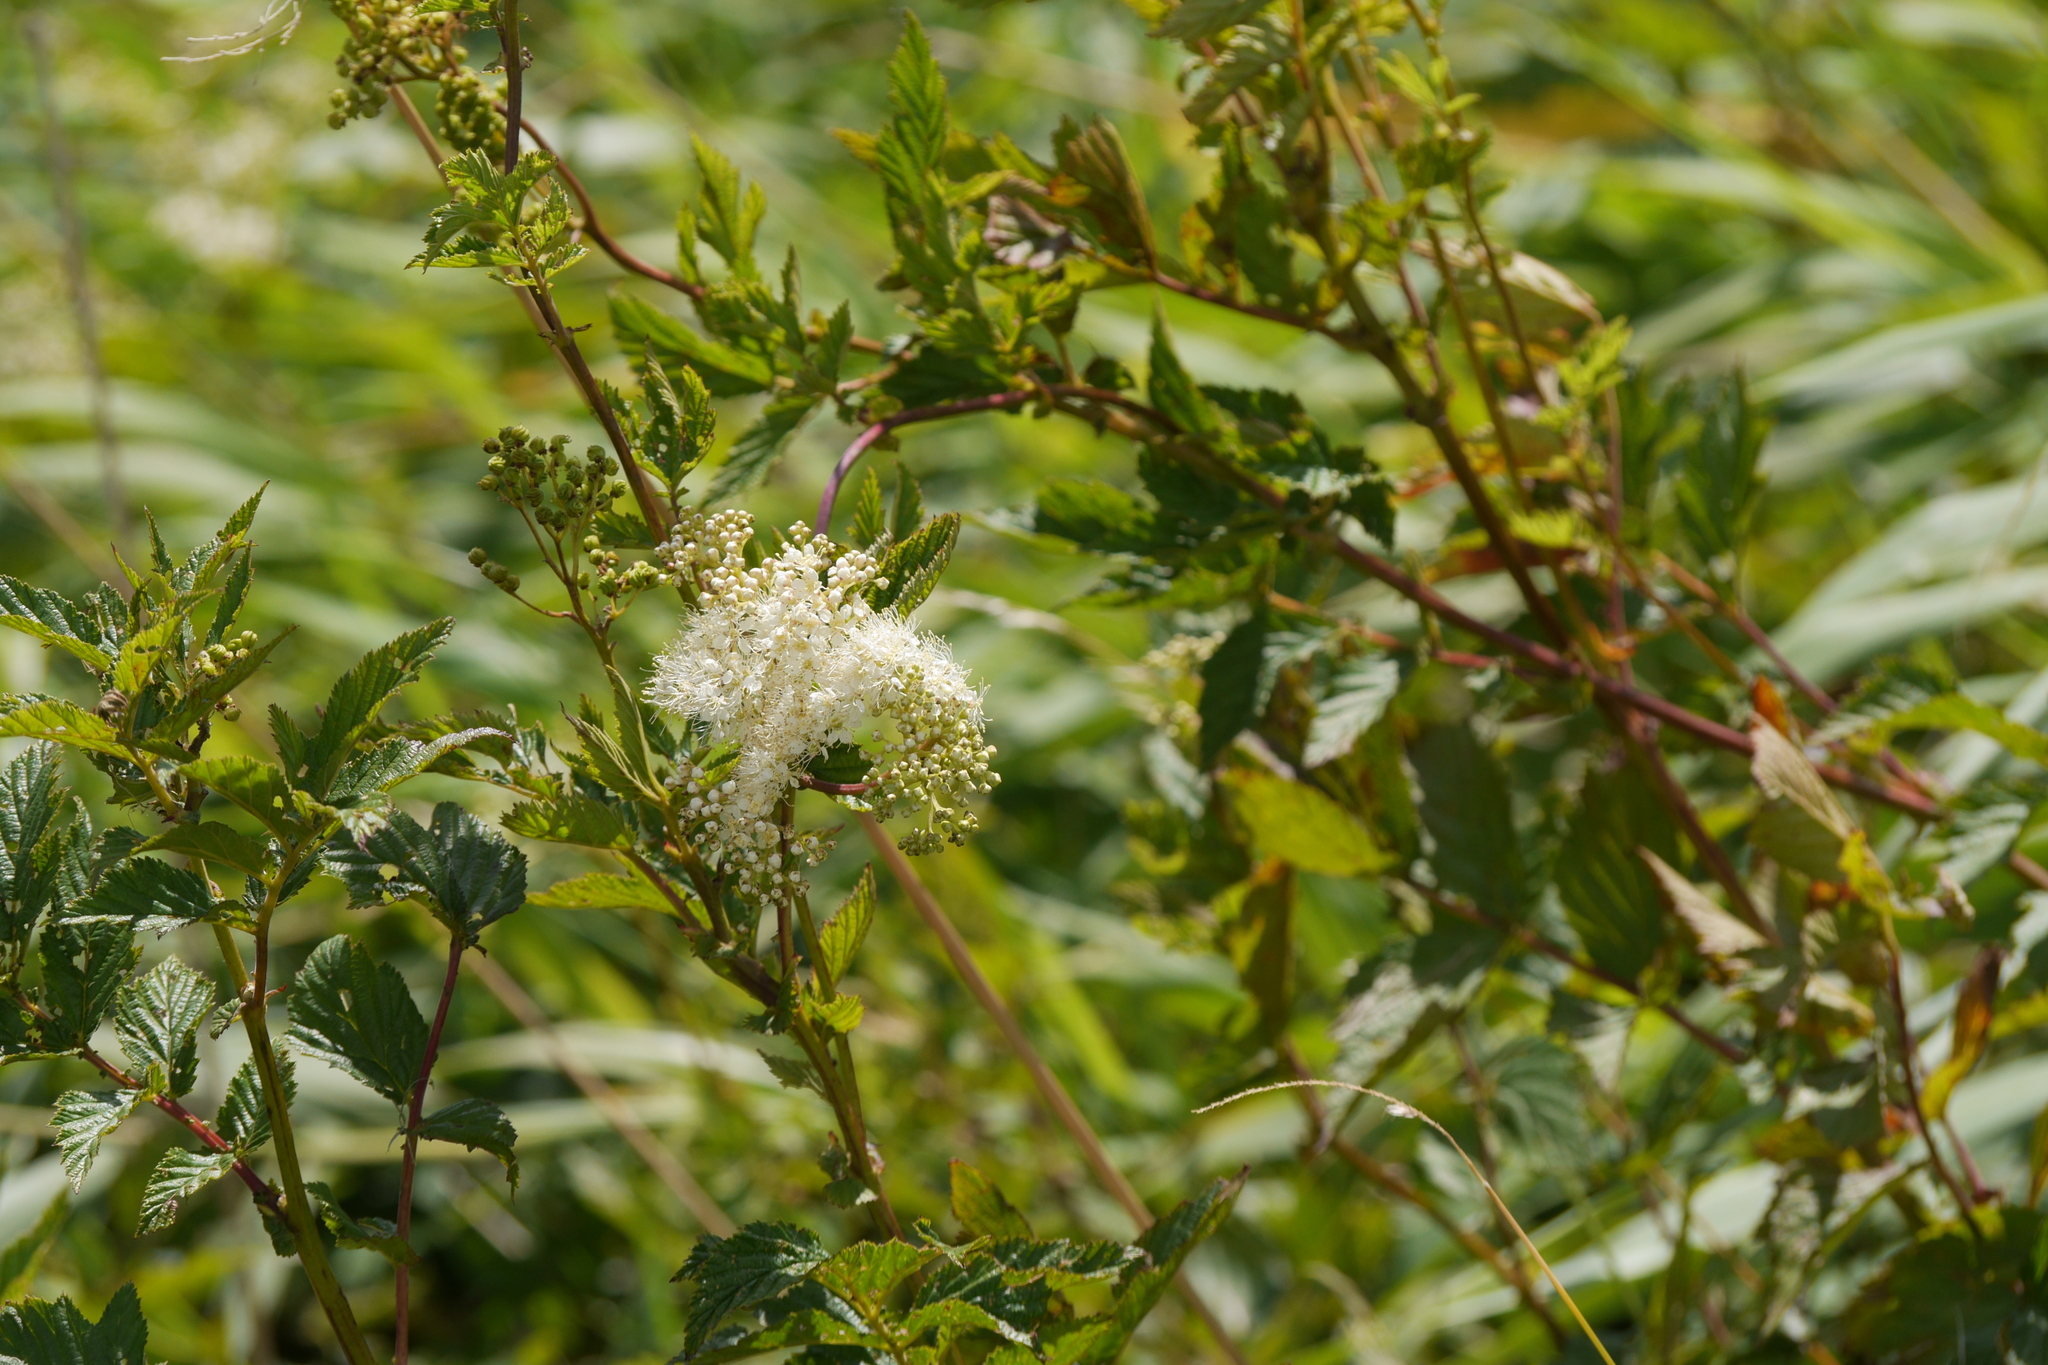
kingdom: Plantae
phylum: Tracheophyta
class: Magnoliopsida
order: Rosales
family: Rosaceae
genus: Filipendula
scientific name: Filipendula ulmaria
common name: Meadowsweet
